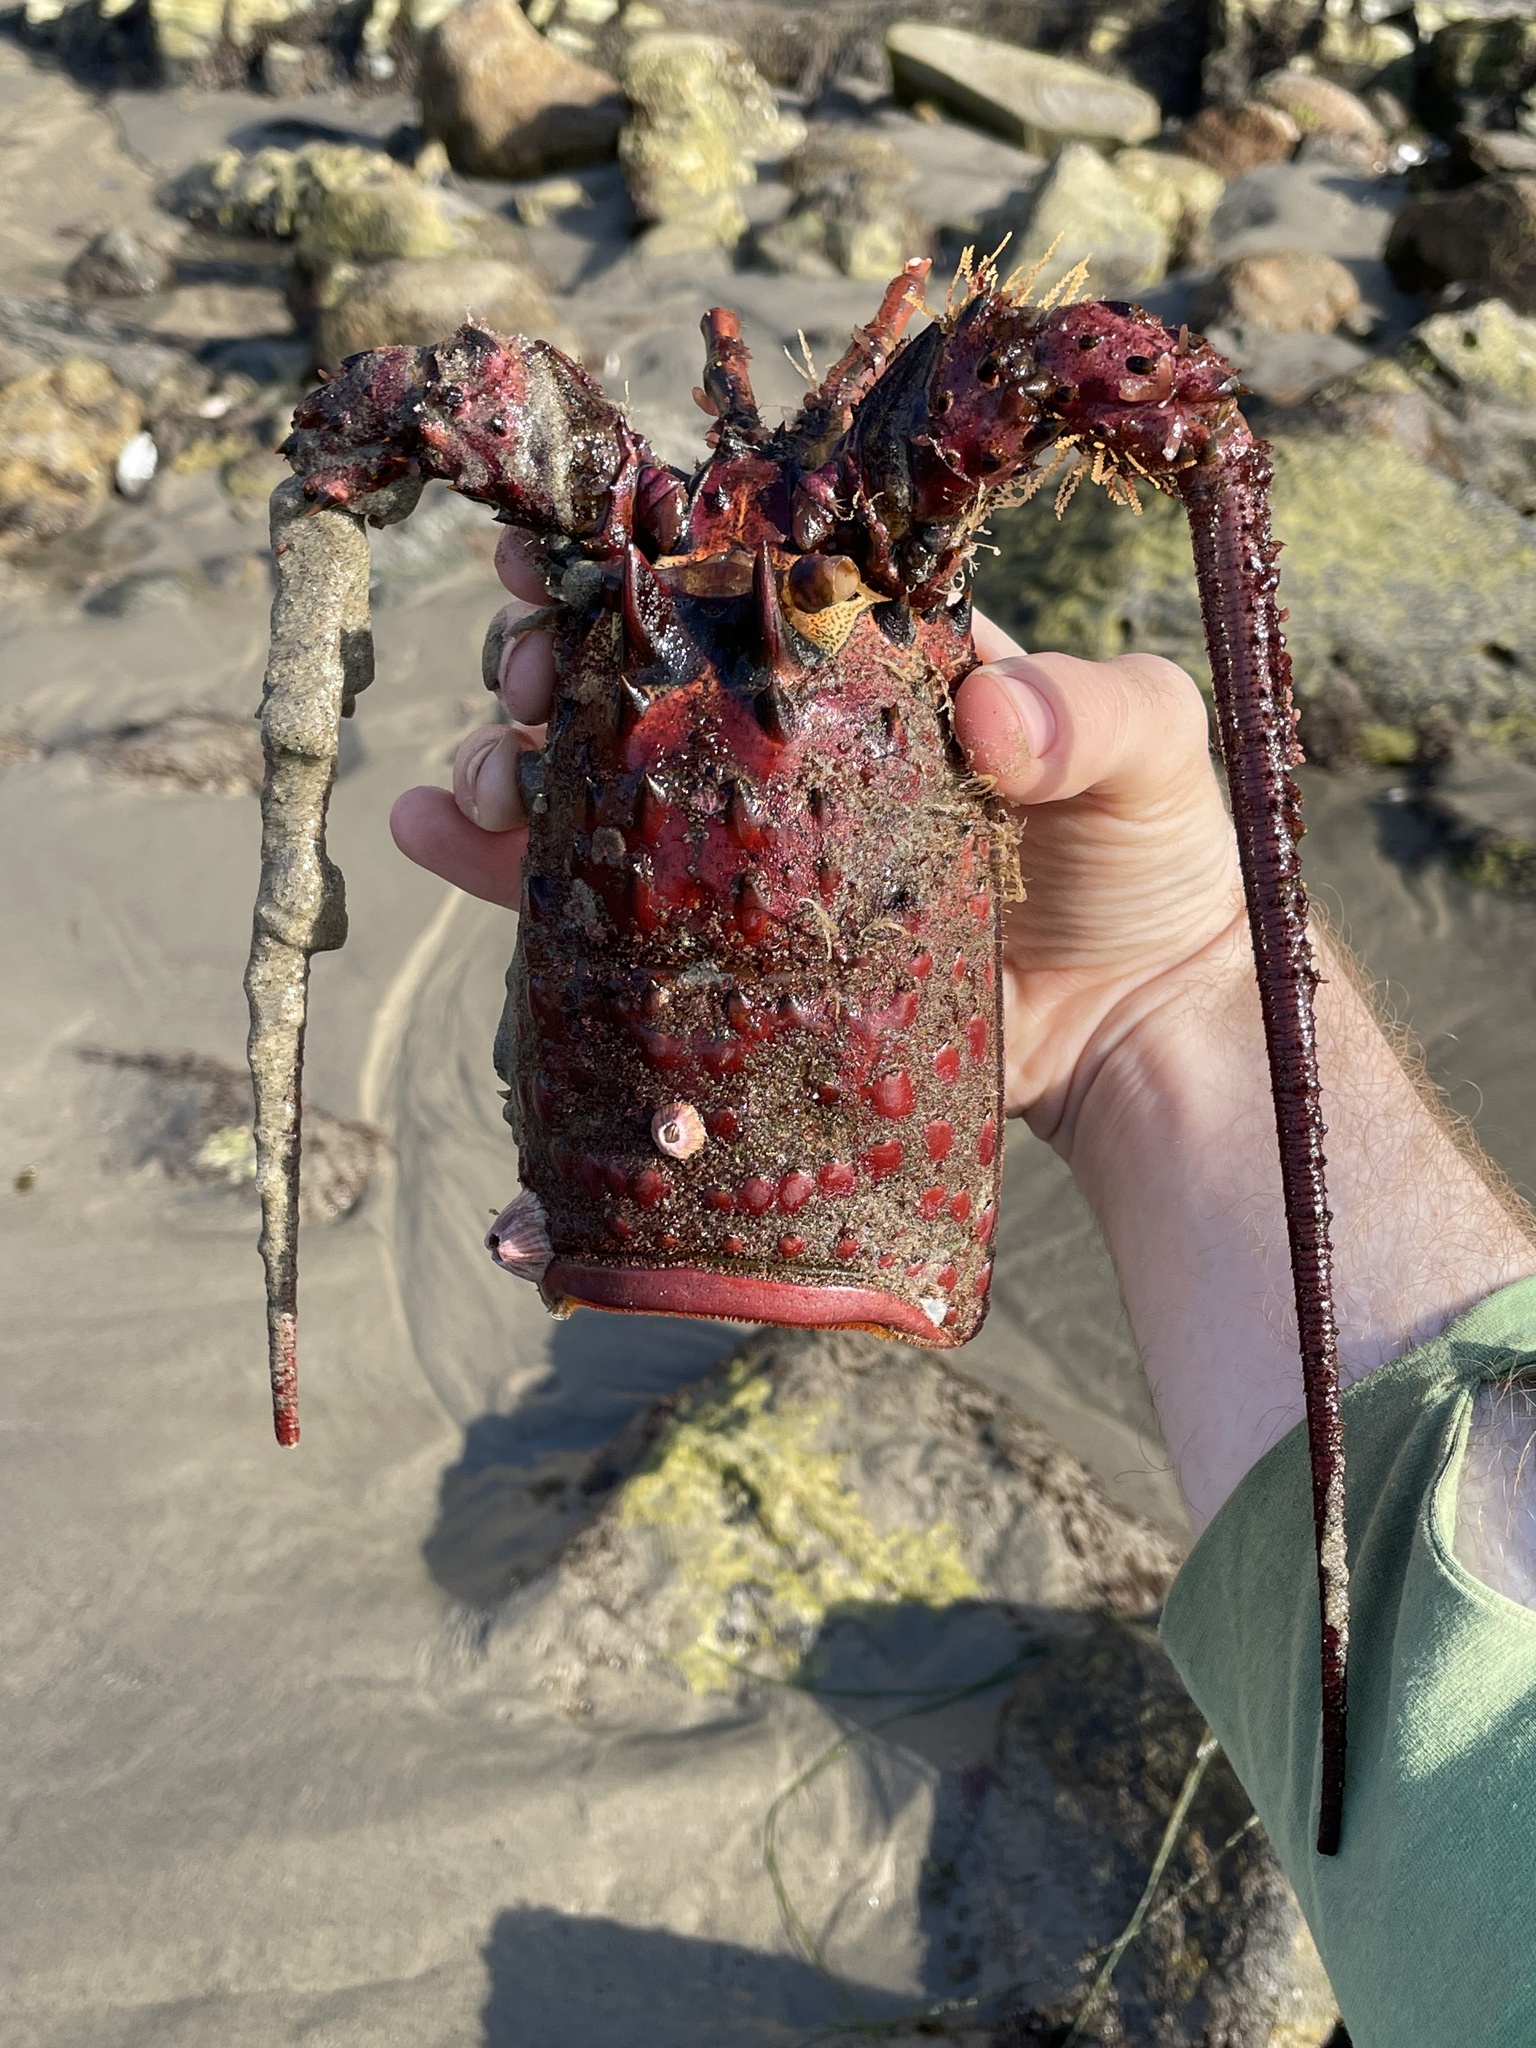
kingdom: Animalia
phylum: Arthropoda
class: Malacostraca
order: Decapoda
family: Palinuridae
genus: Panulirus
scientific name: Panulirus interruptus
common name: California spiny lobster
